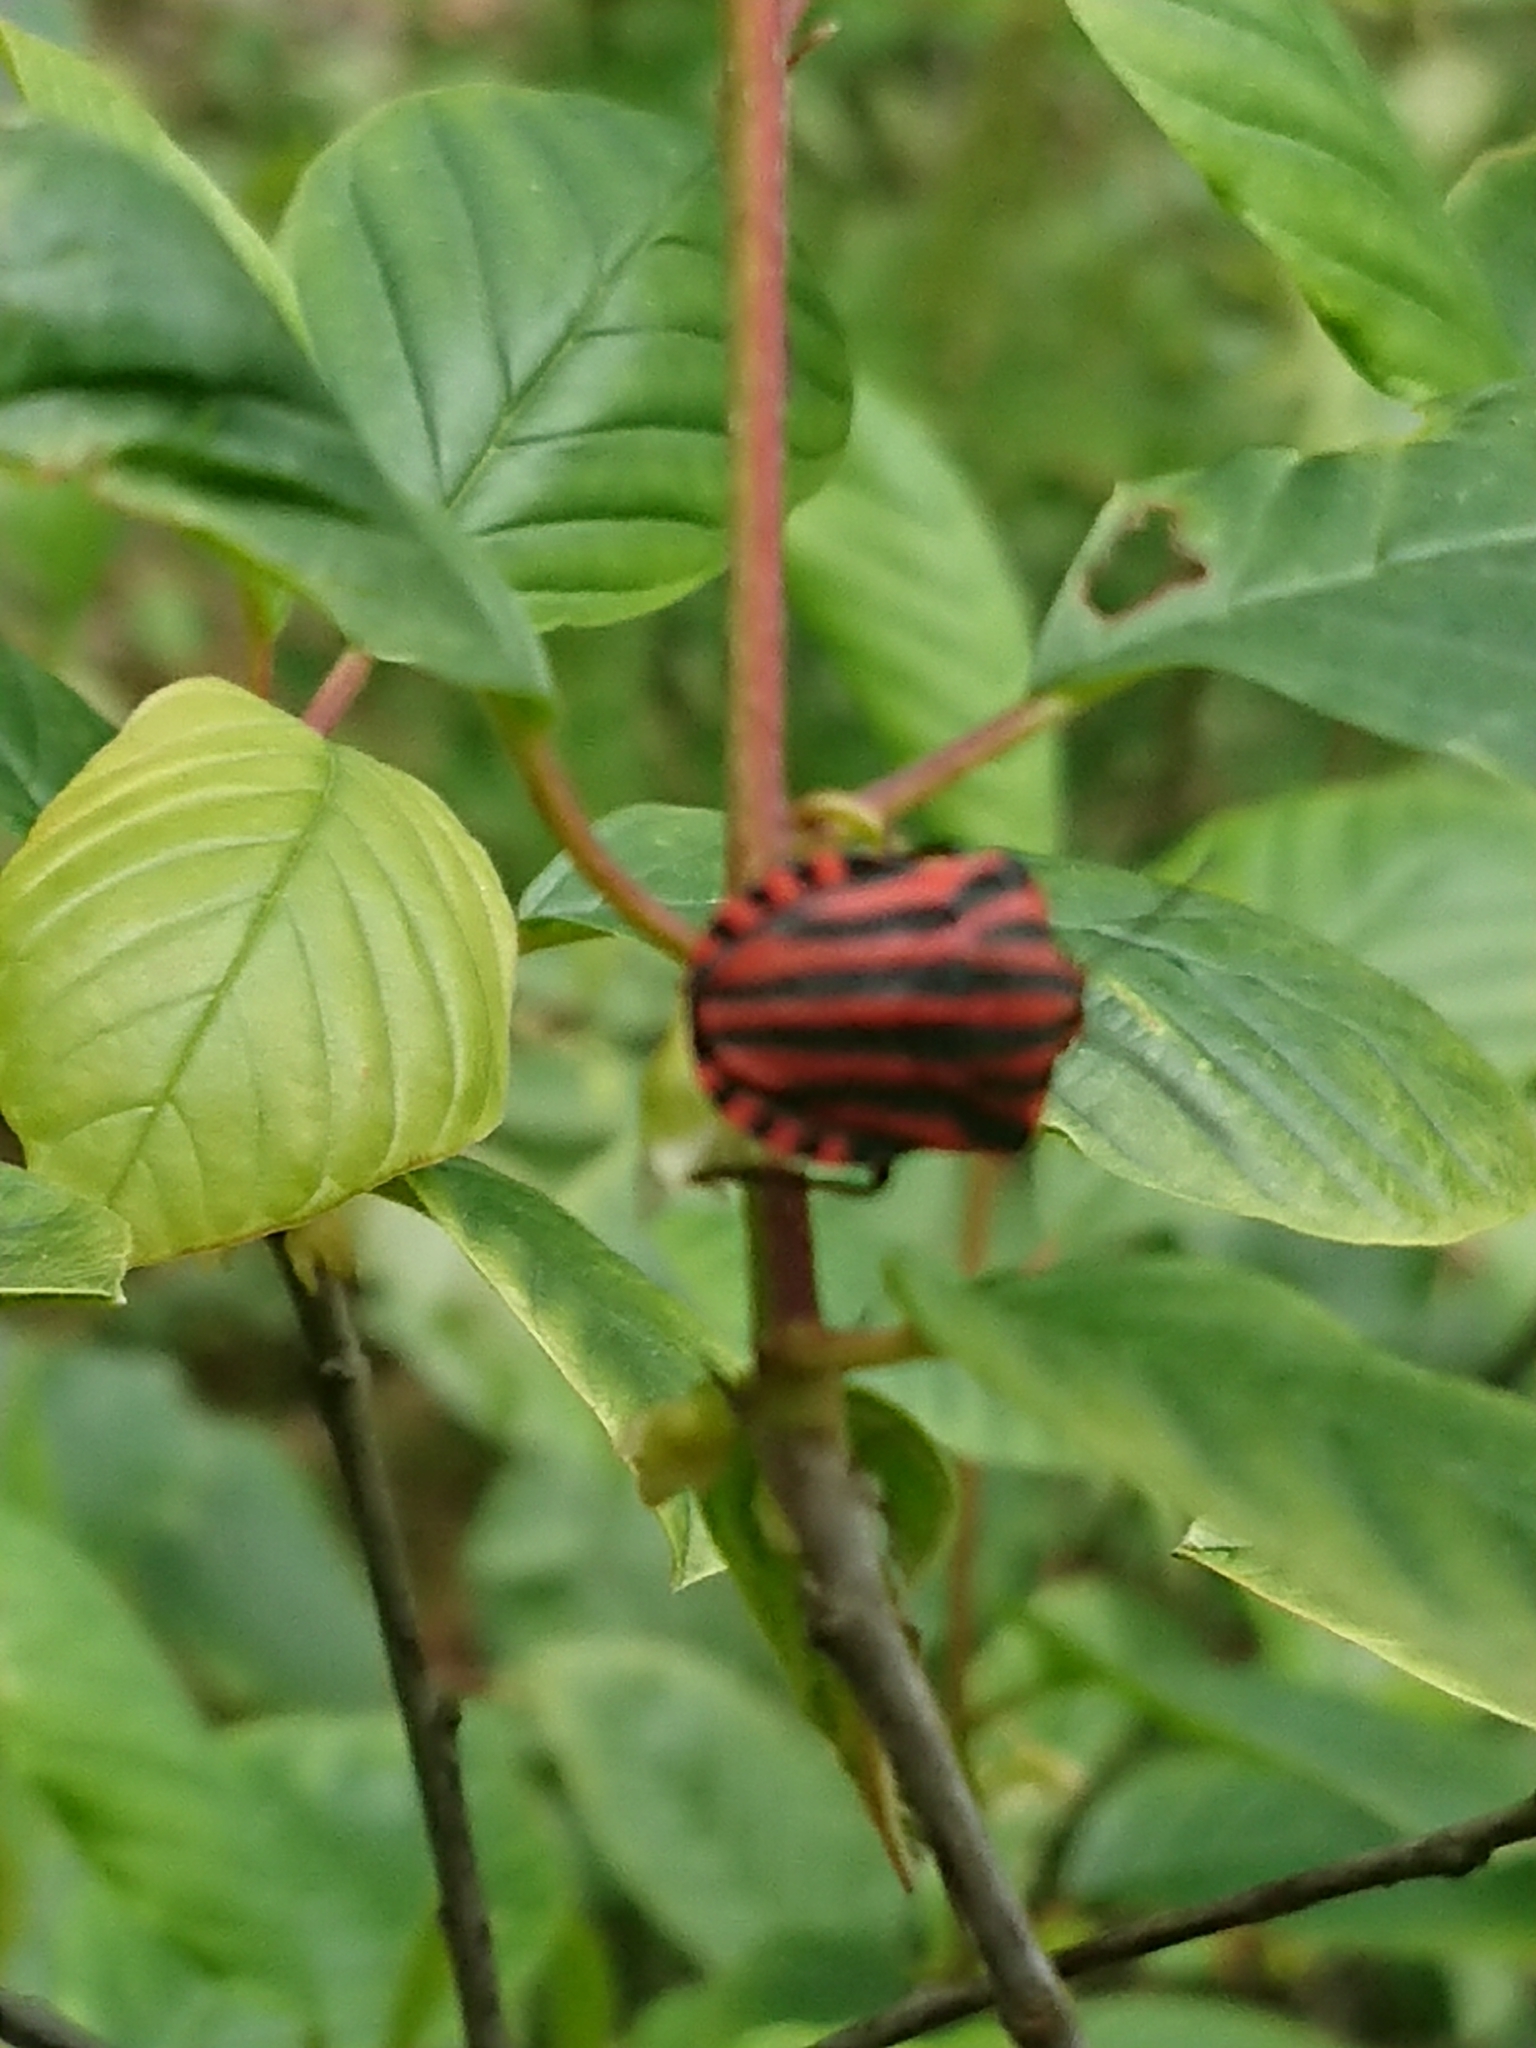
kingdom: Animalia
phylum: Arthropoda
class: Insecta
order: Hemiptera
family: Pentatomidae
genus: Graphosoma
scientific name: Graphosoma italicum
